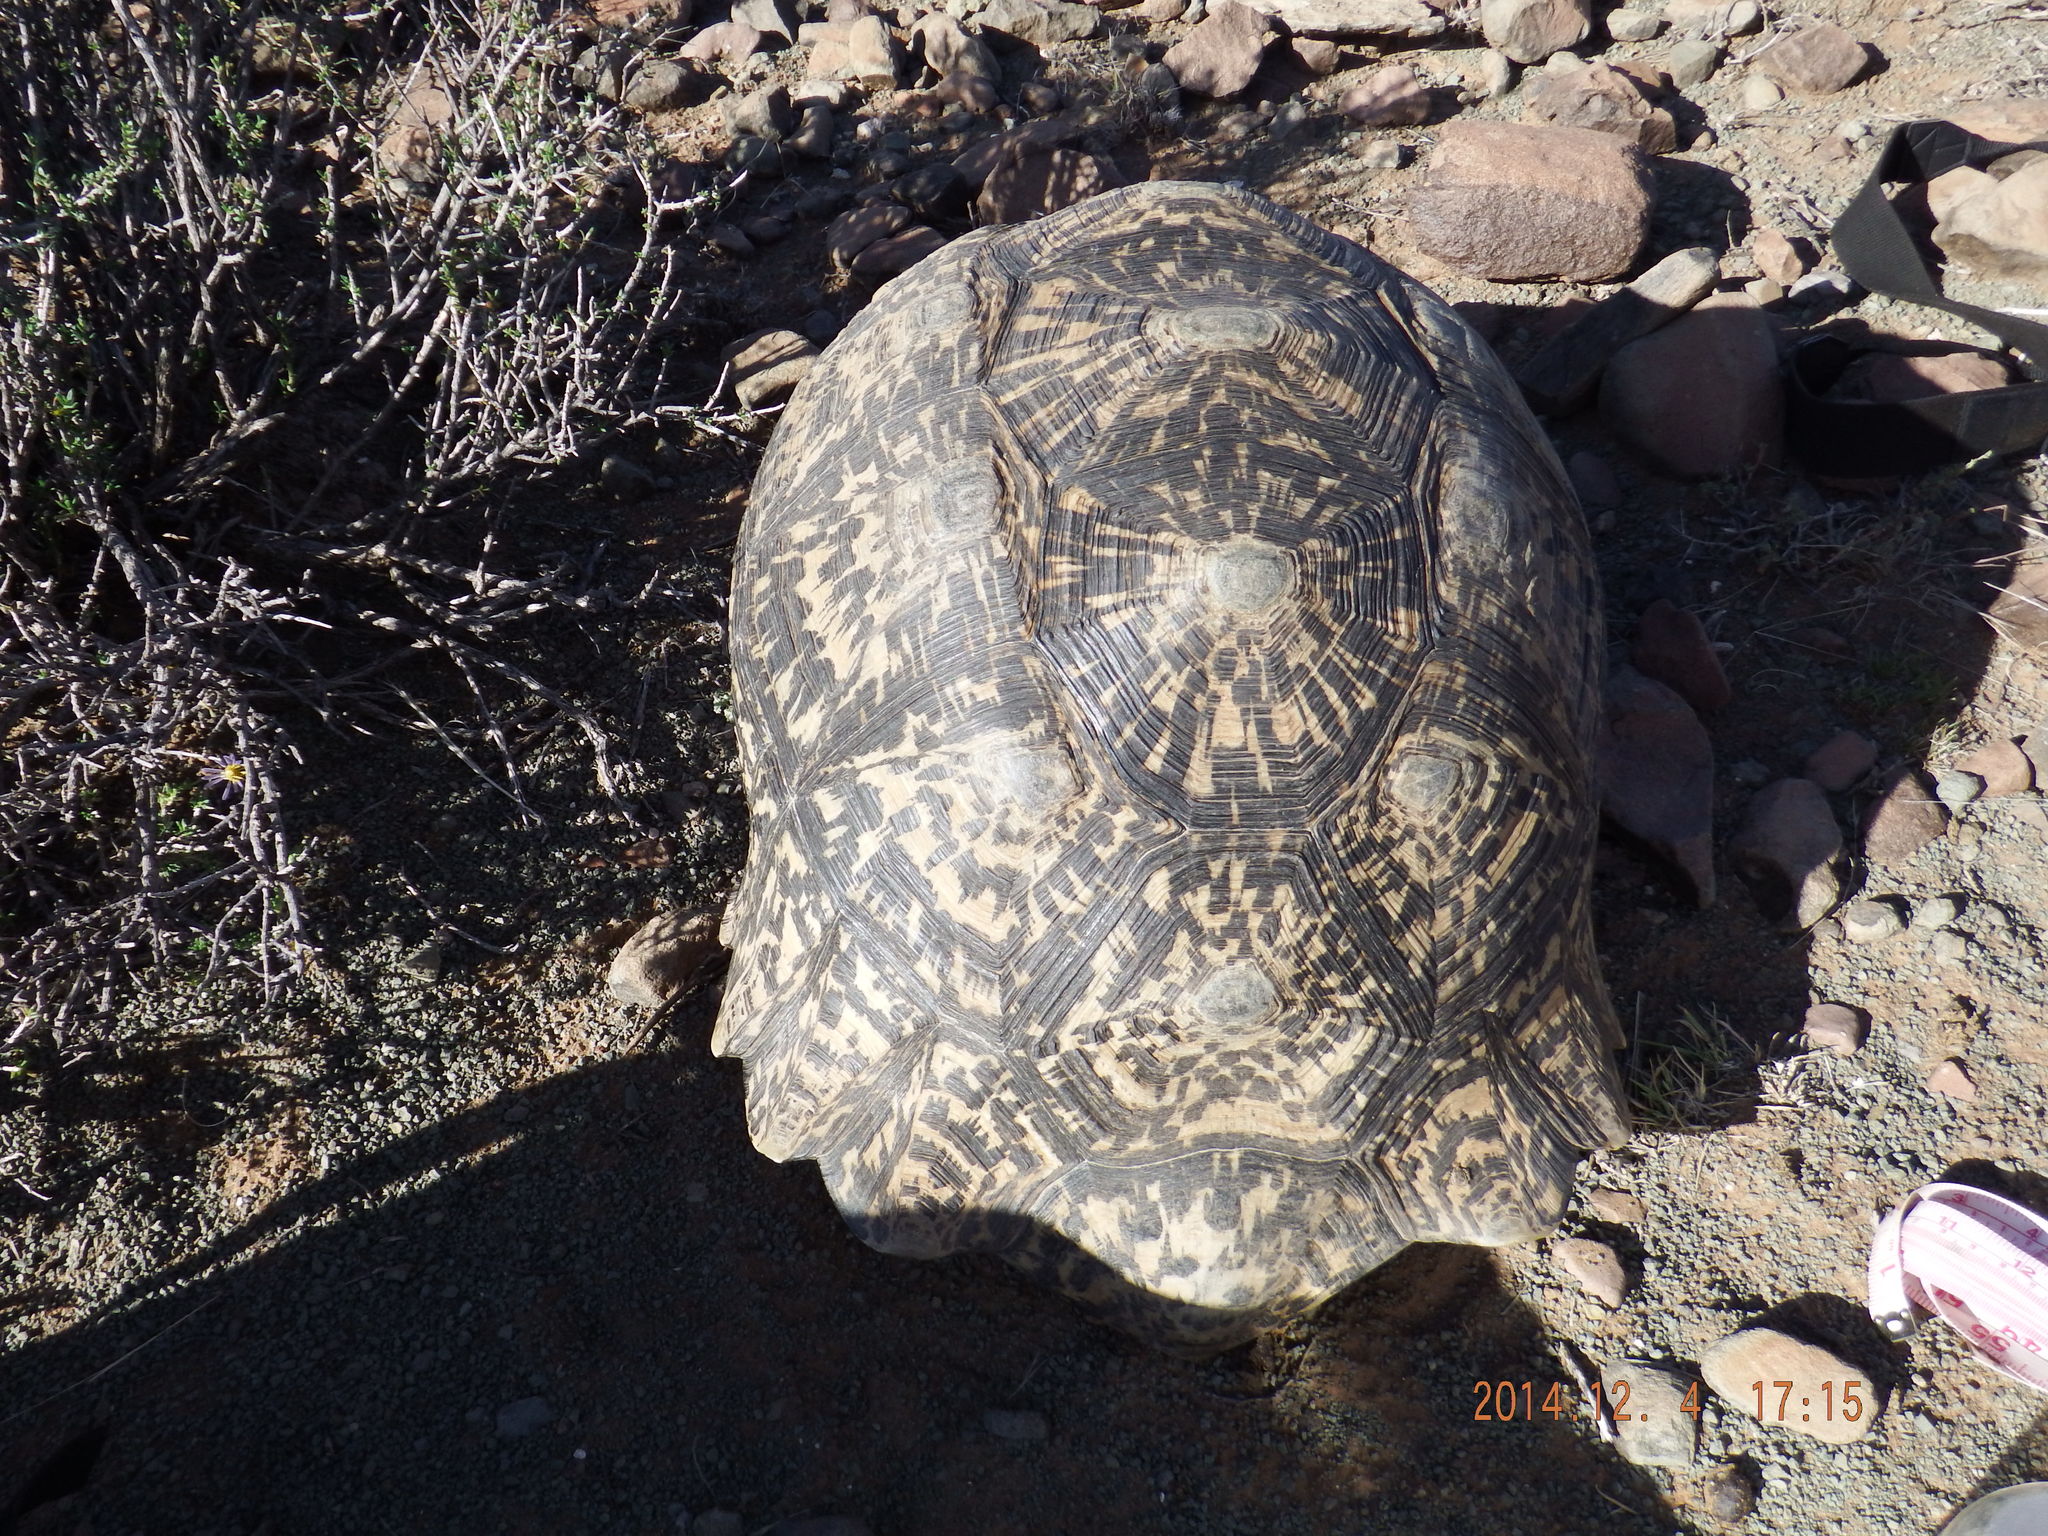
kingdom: Animalia
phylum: Chordata
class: Testudines
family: Testudinidae
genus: Stigmochelys
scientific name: Stigmochelys pardalis
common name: Leopard tortoise
